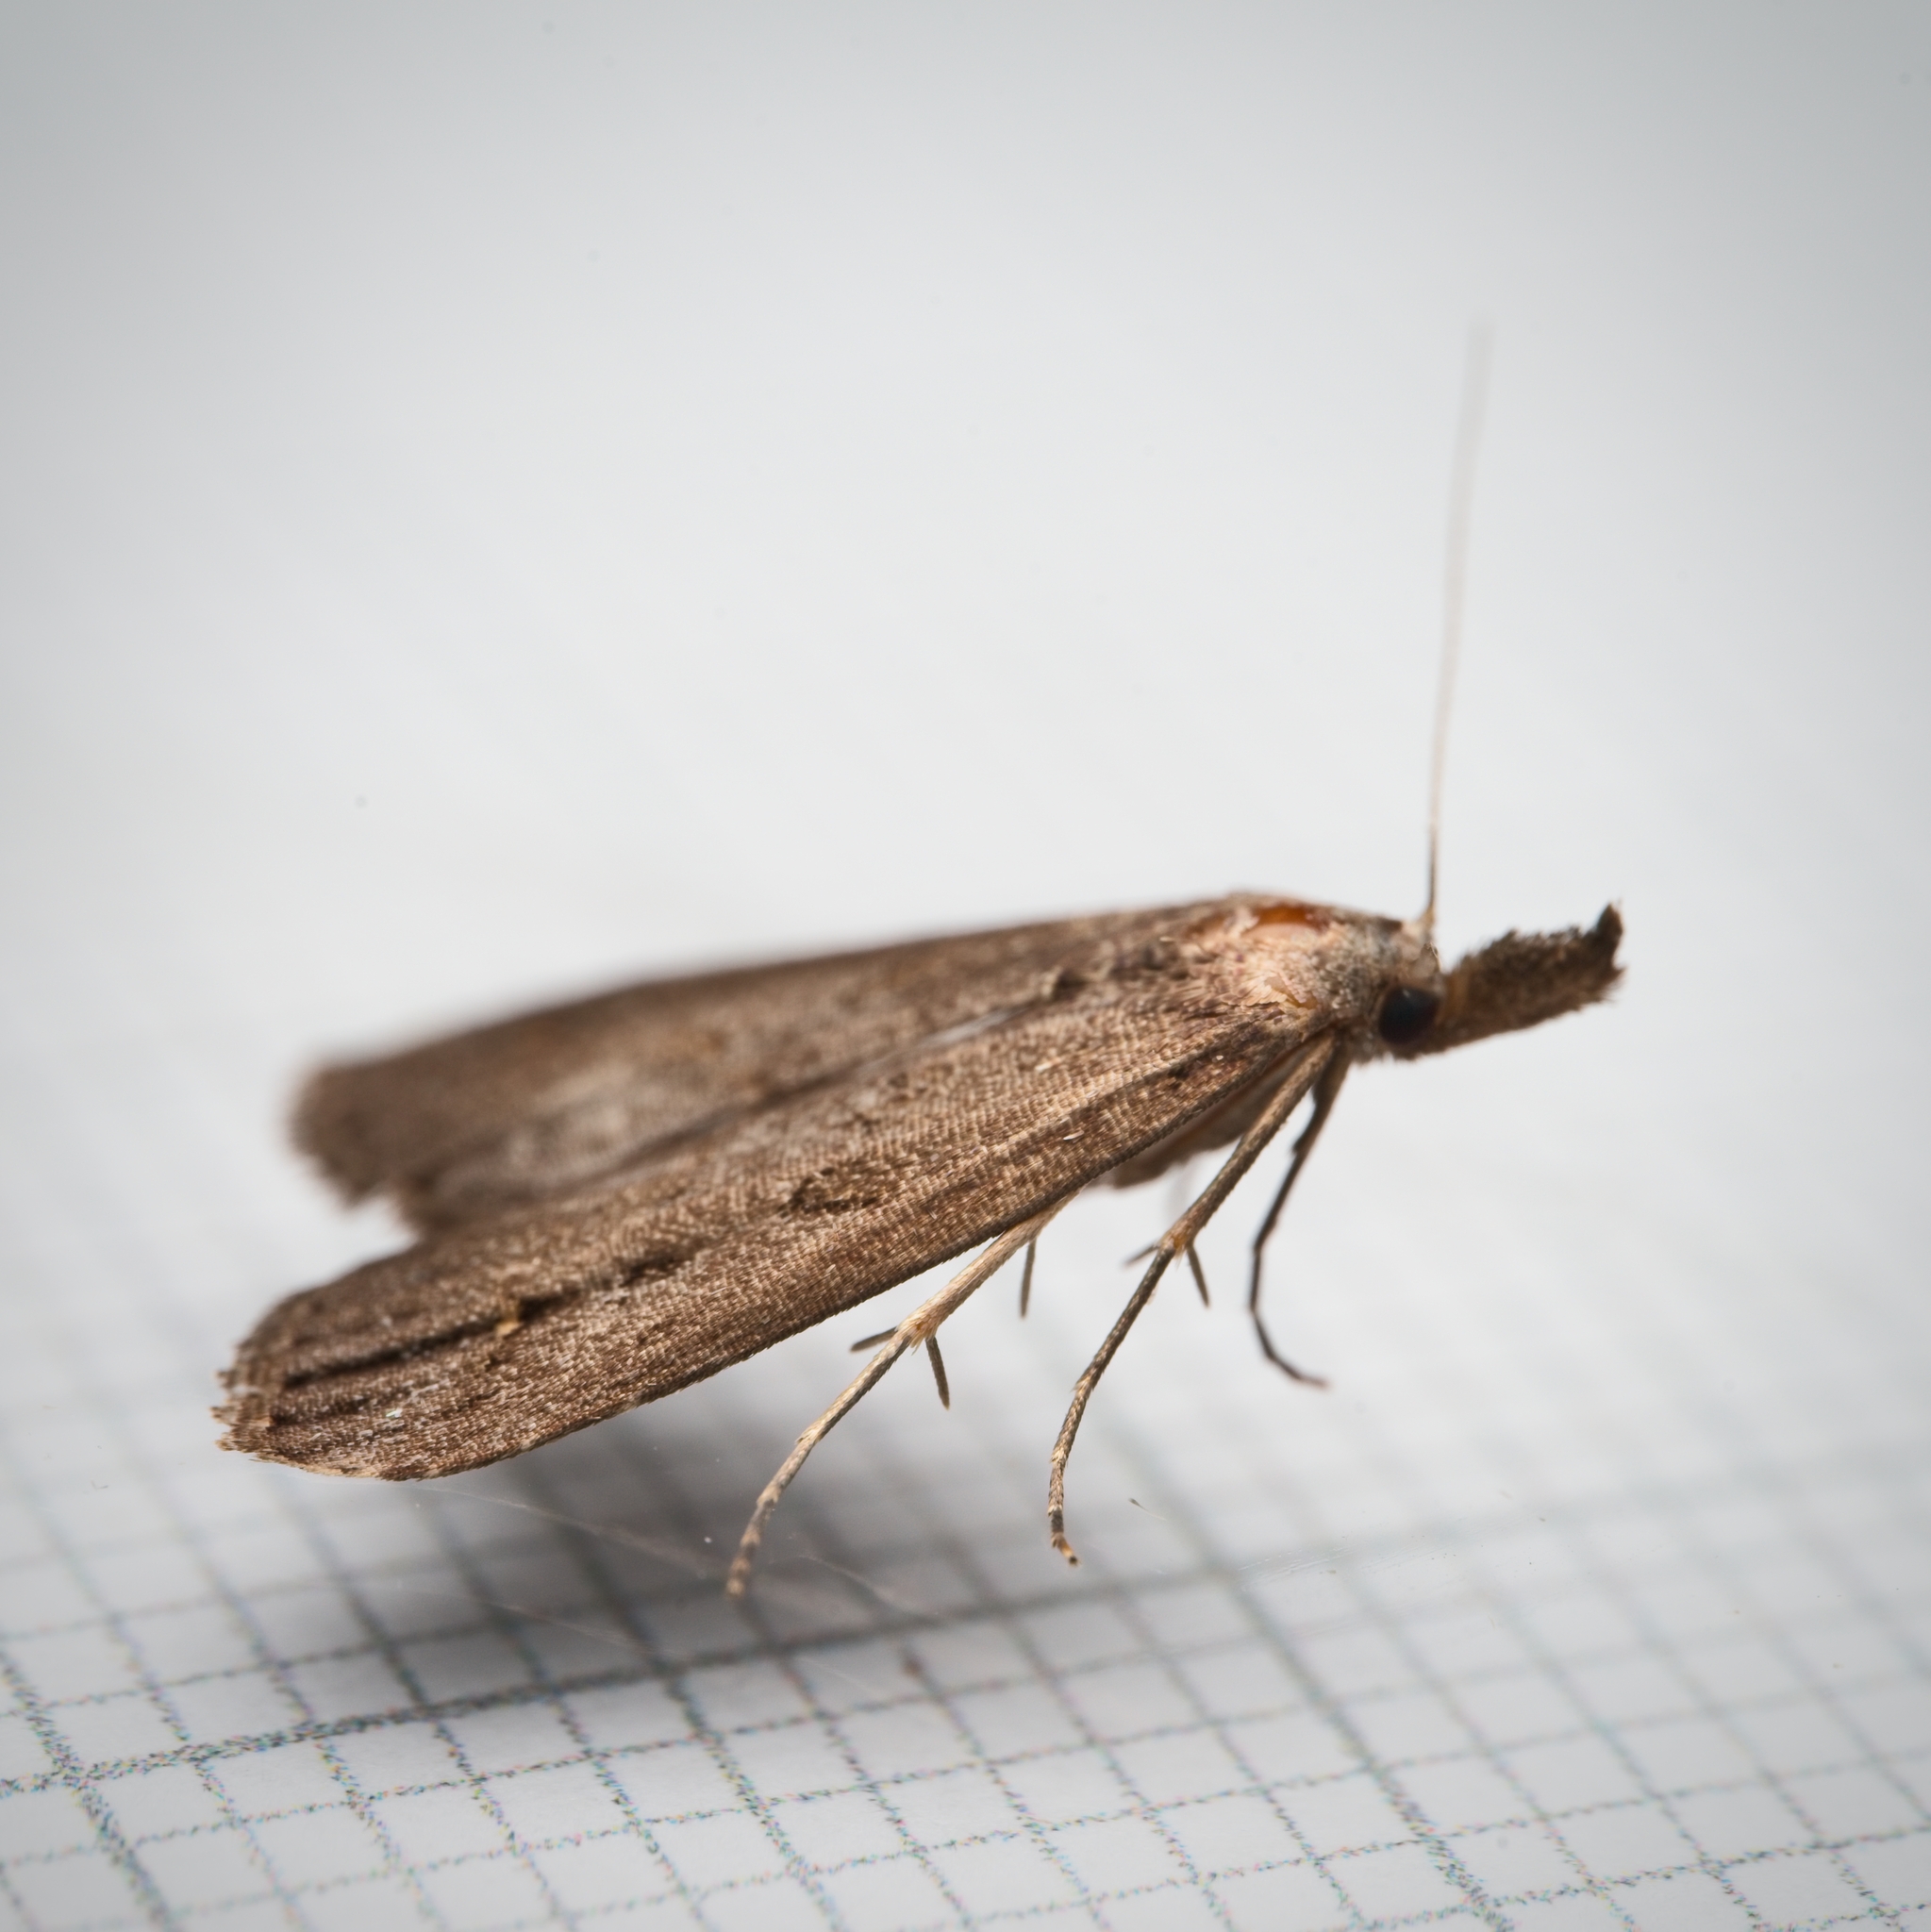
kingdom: Animalia
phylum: Arthropoda
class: Insecta
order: Lepidoptera
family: Erebidae
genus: Schrankia
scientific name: Schrankia costaestrigalis
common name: Pinion-streaked snout
